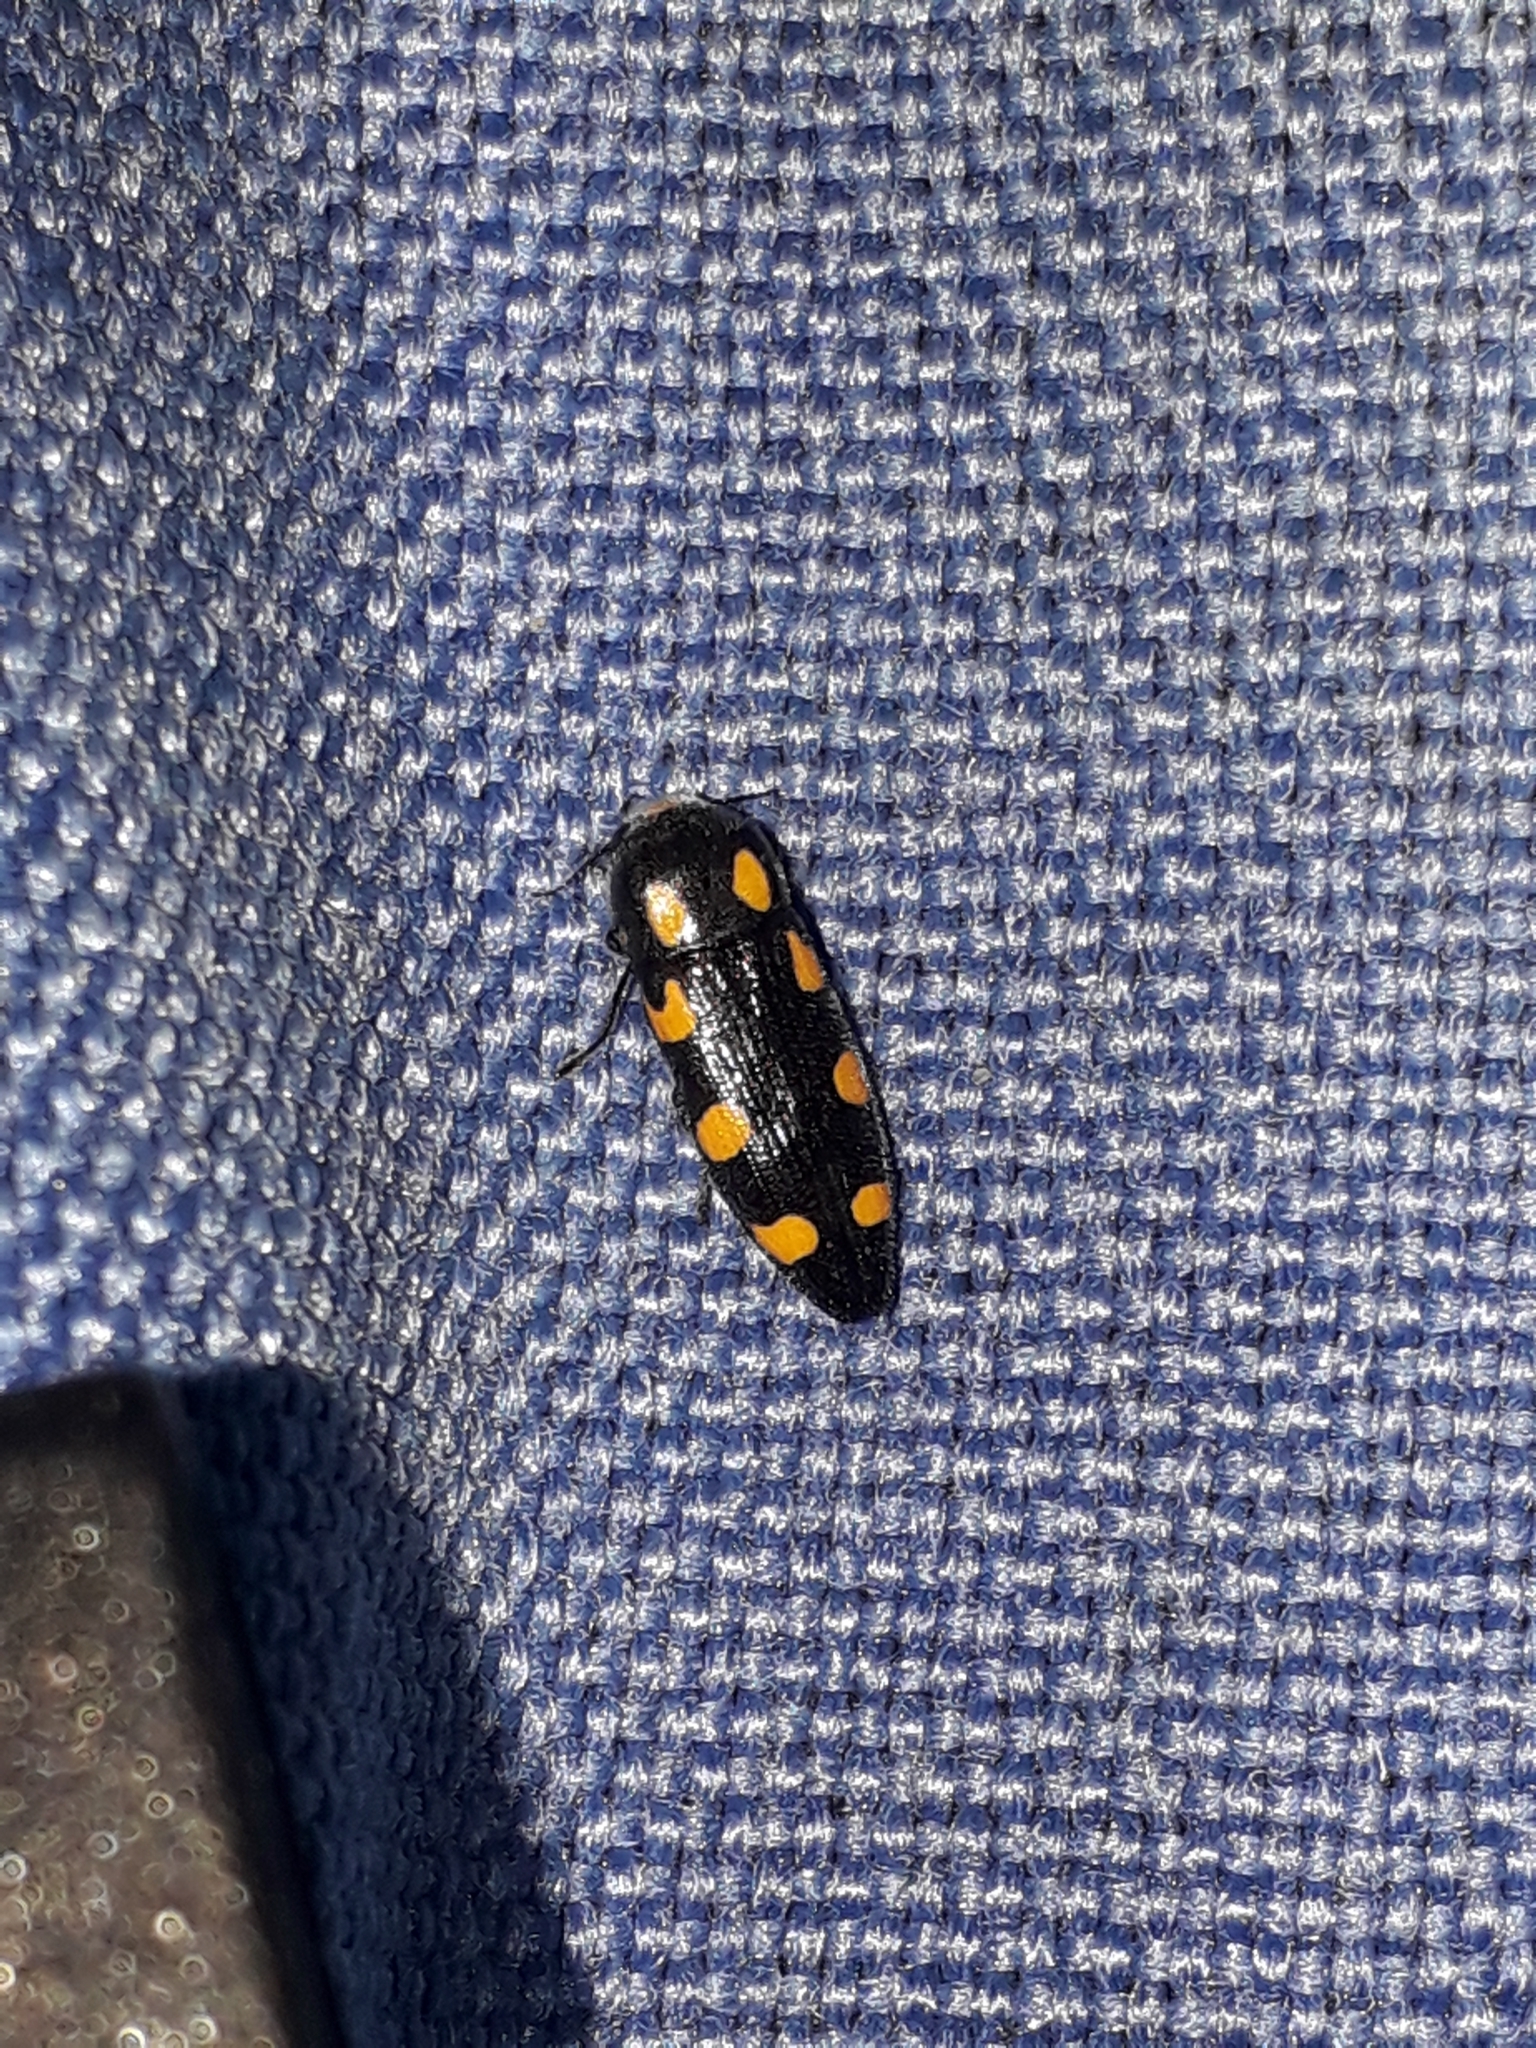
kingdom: Animalia
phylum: Arthropoda
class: Insecta
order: Coleoptera
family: Buprestidae
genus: Ptosima
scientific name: Ptosima undecimmaculata
